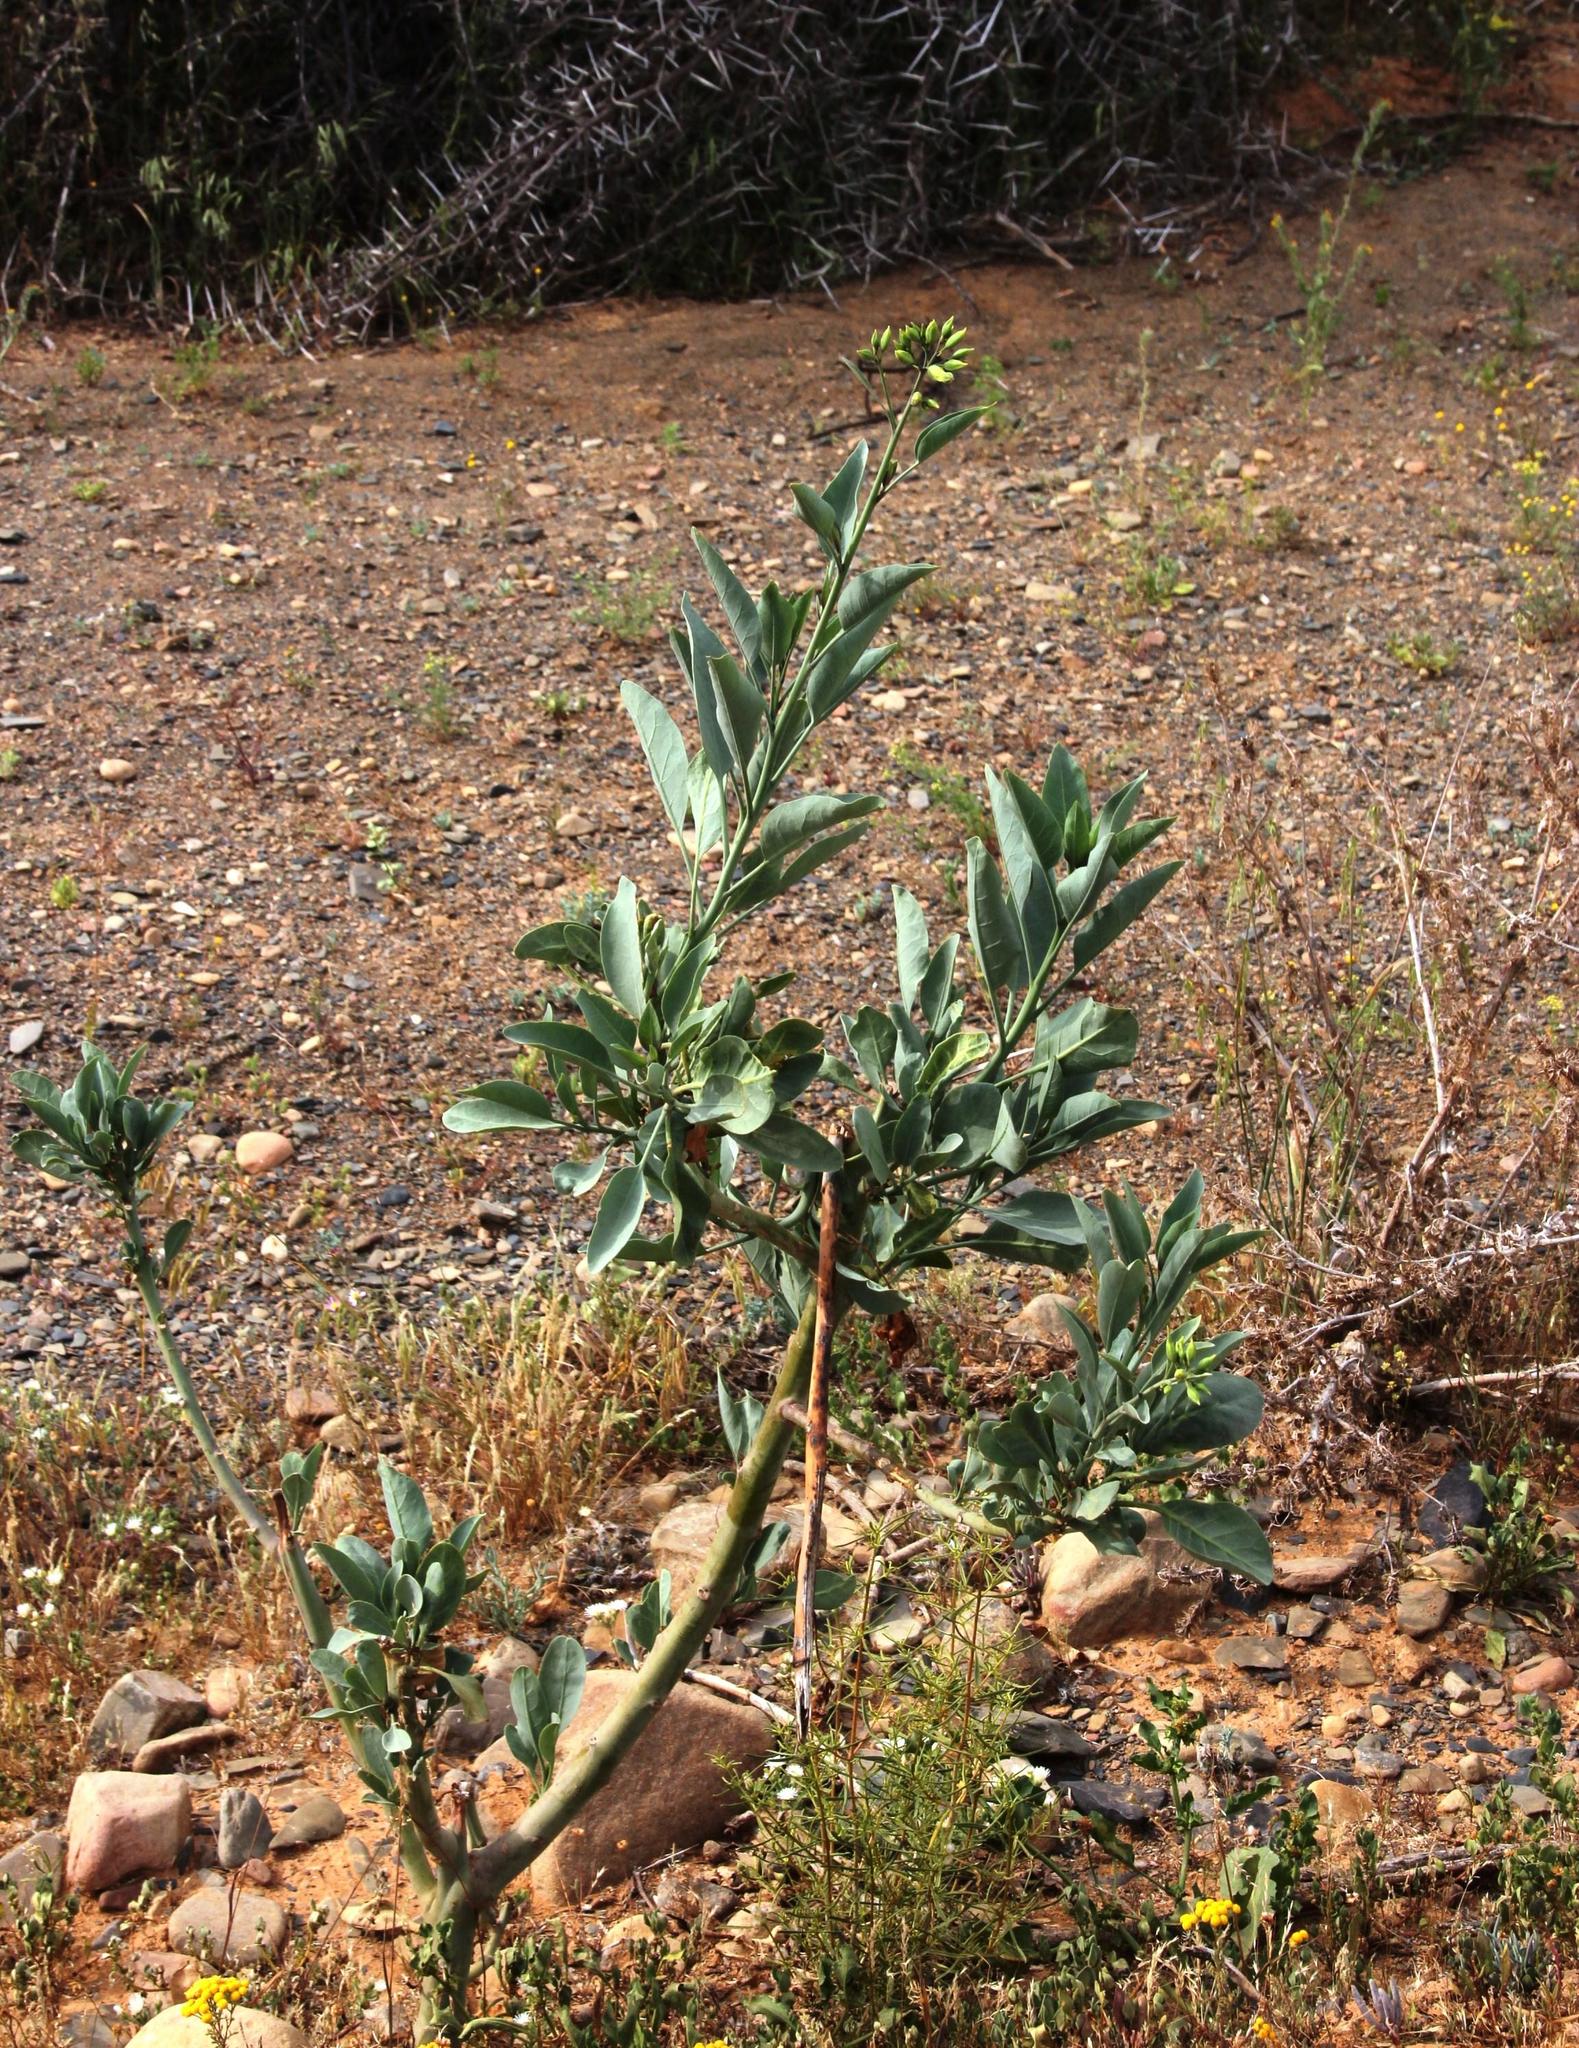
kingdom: Plantae
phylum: Tracheophyta
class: Magnoliopsida
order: Solanales
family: Solanaceae
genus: Nicotiana
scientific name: Nicotiana glauca
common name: Tree tobacco
